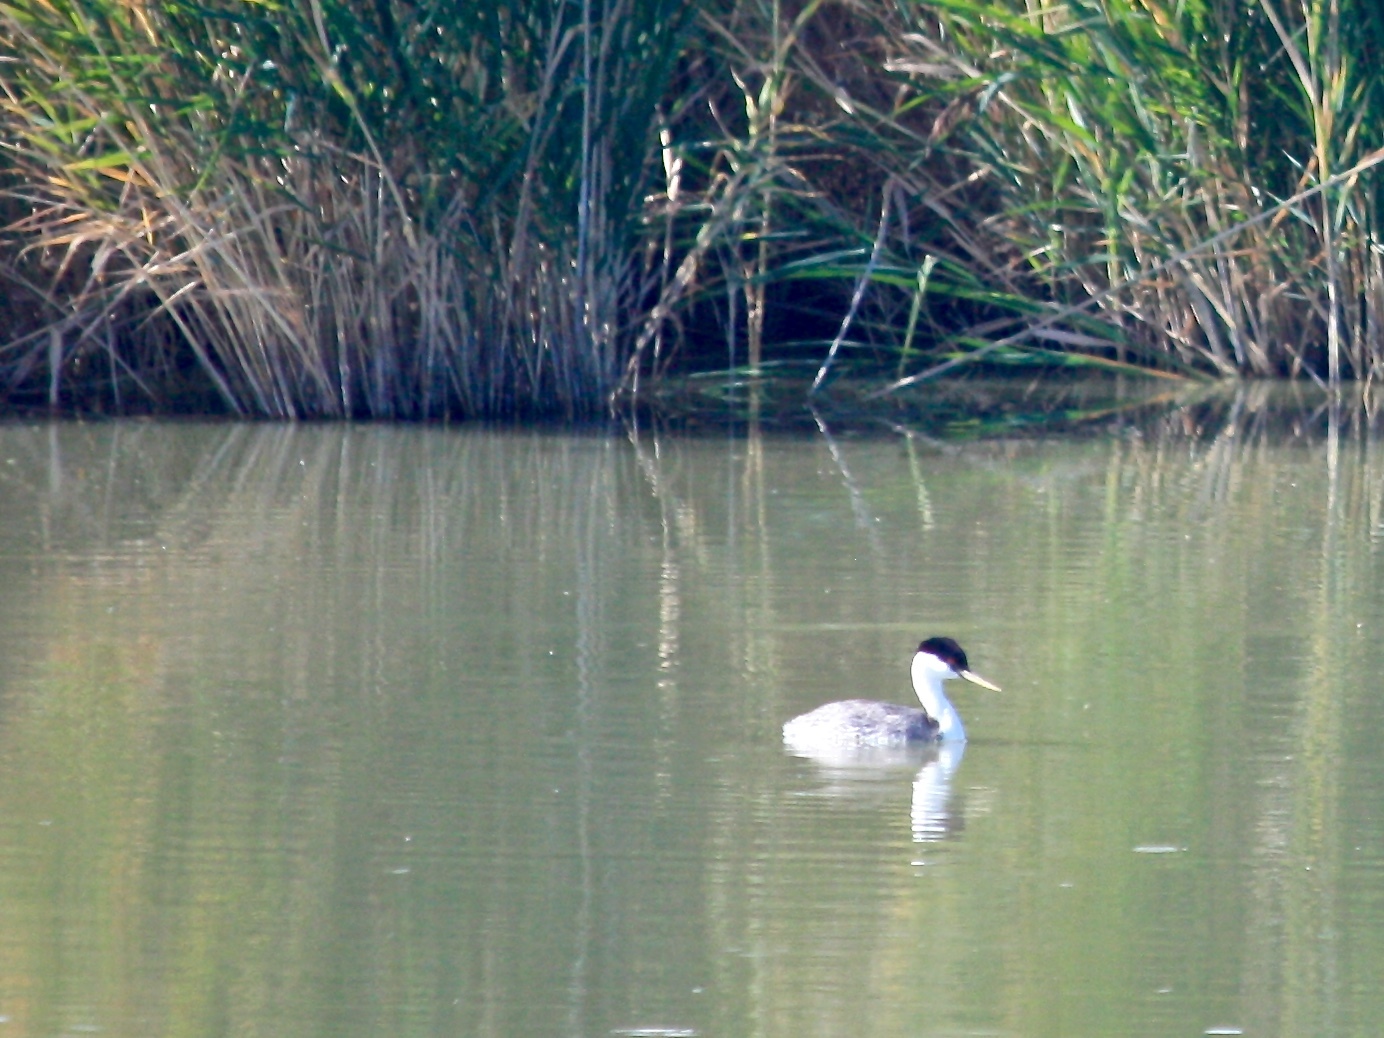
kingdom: Animalia
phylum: Chordata
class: Aves
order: Podicipediformes
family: Podicipedidae
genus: Aechmophorus
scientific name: Aechmophorus occidentalis
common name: Western grebe
